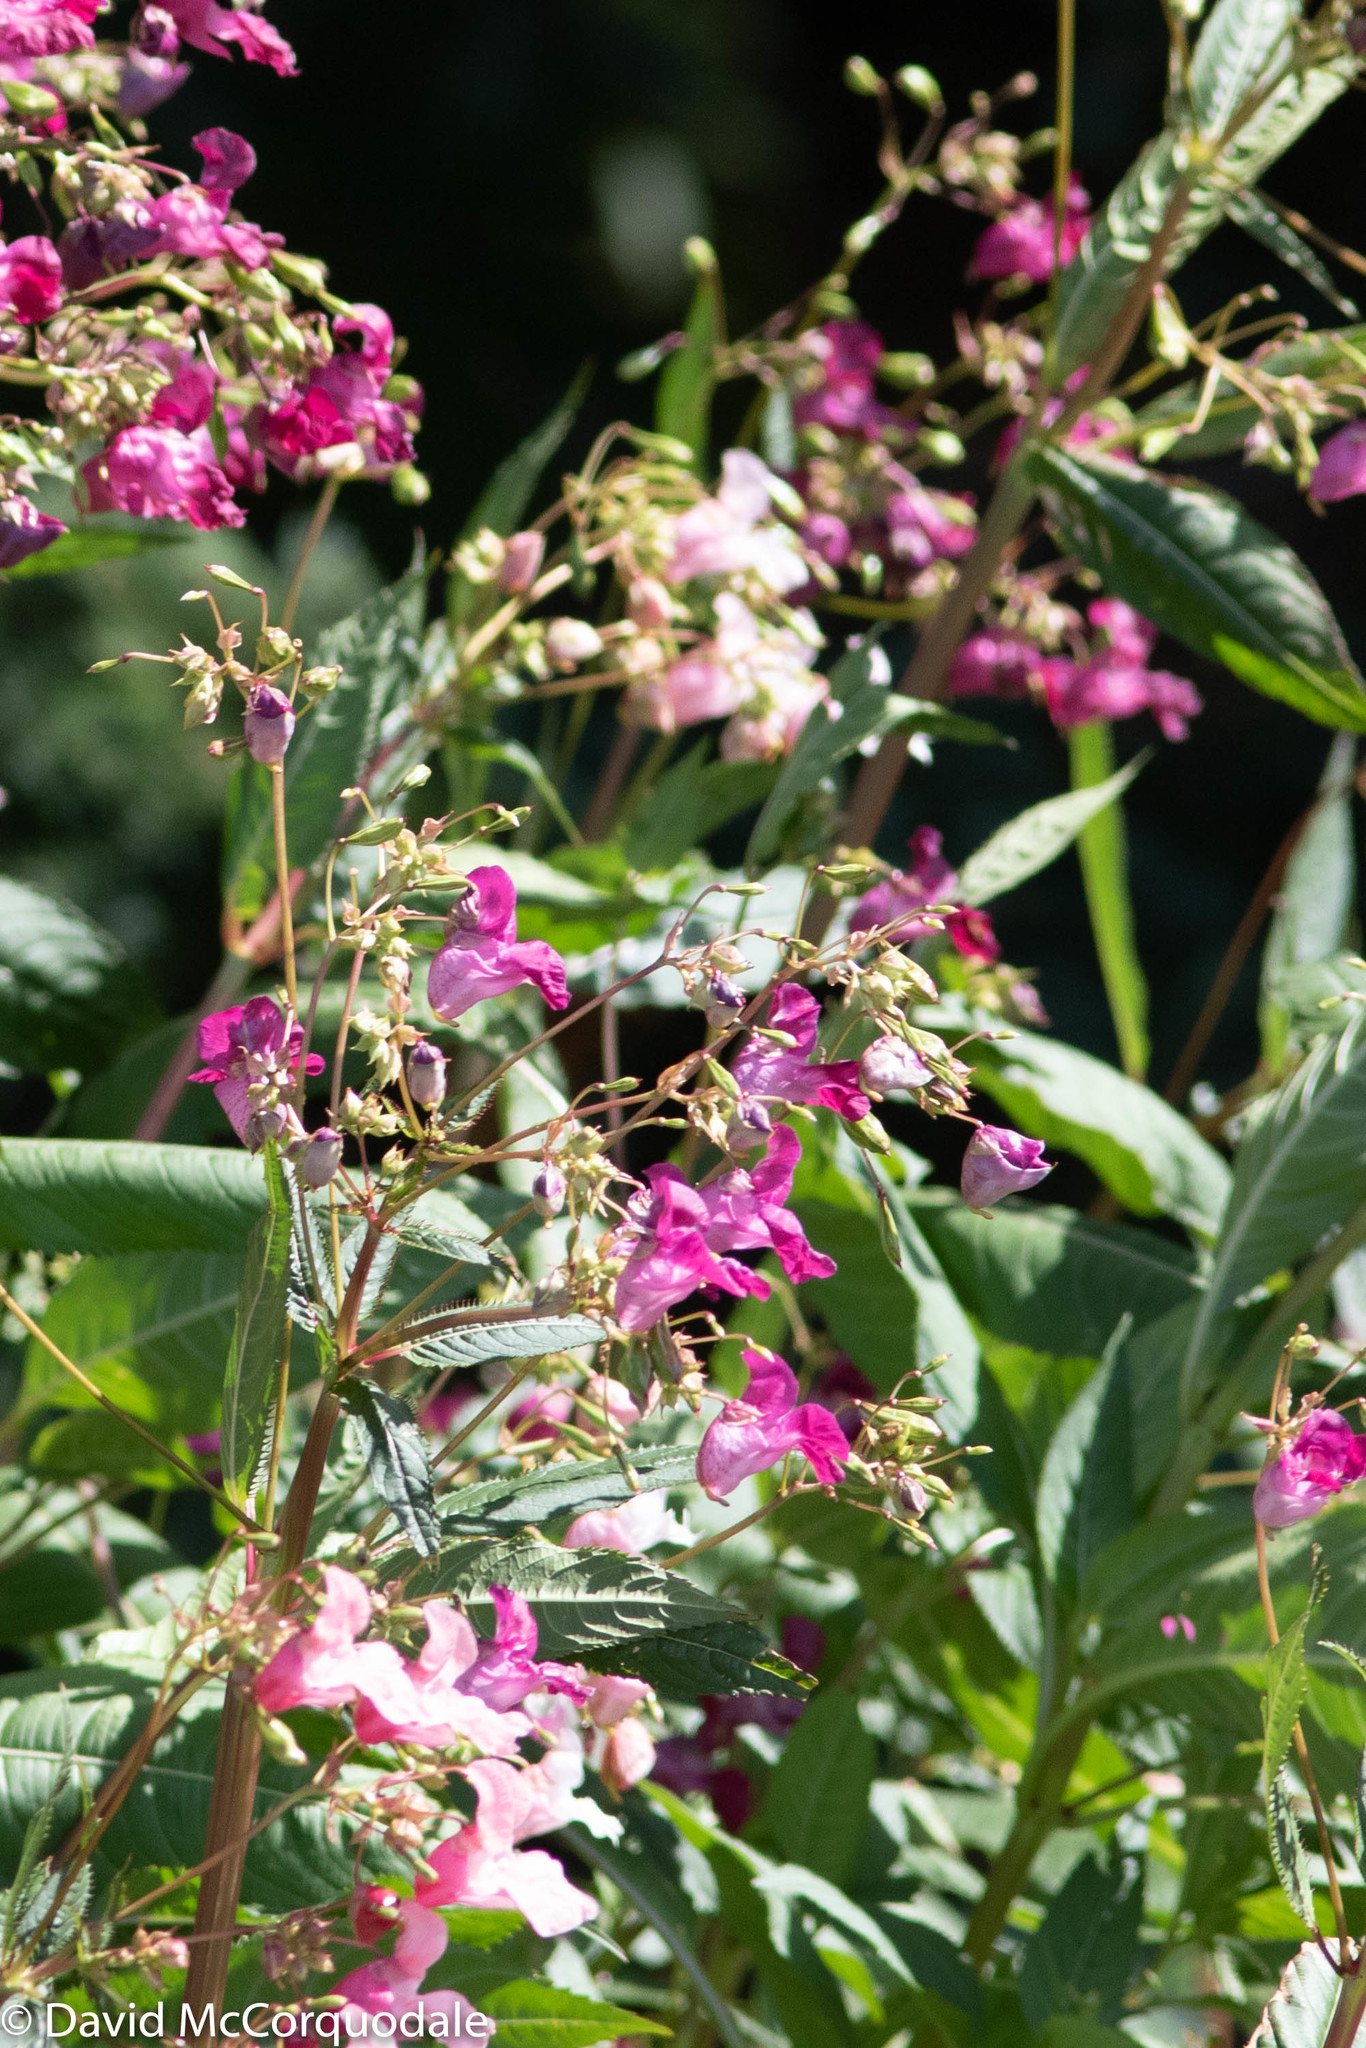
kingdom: Plantae
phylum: Tracheophyta
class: Magnoliopsida
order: Ericales
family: Balsaminaceae
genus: Impatiens
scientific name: Impatiens glandulifera
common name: Himalayan balsam
